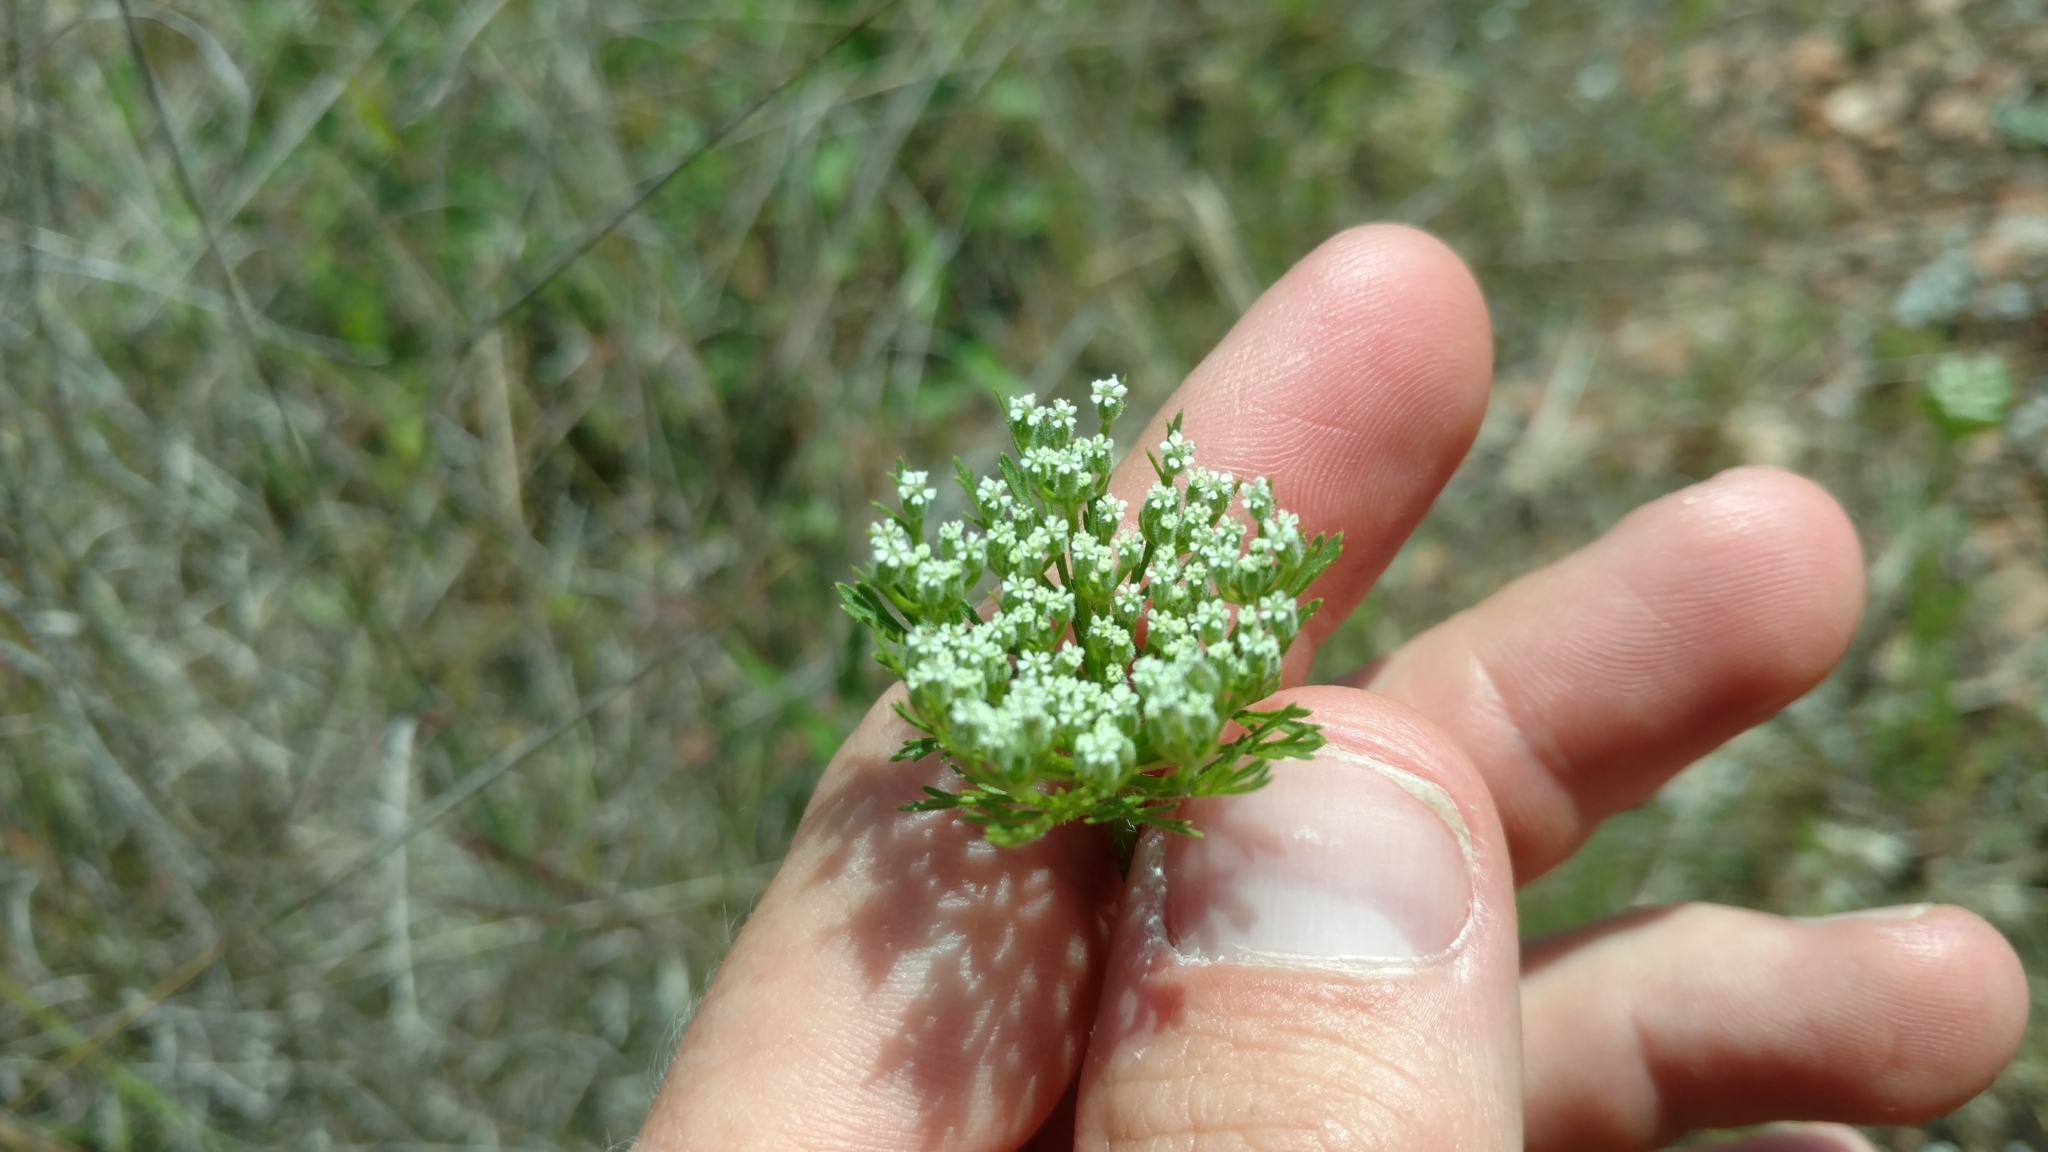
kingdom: Plantae
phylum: Tracheophyta
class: Magnoliopsida
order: Apiales
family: Apiaceae
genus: Daucus
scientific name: Daucus pusillus
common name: Southwest wild carrot
